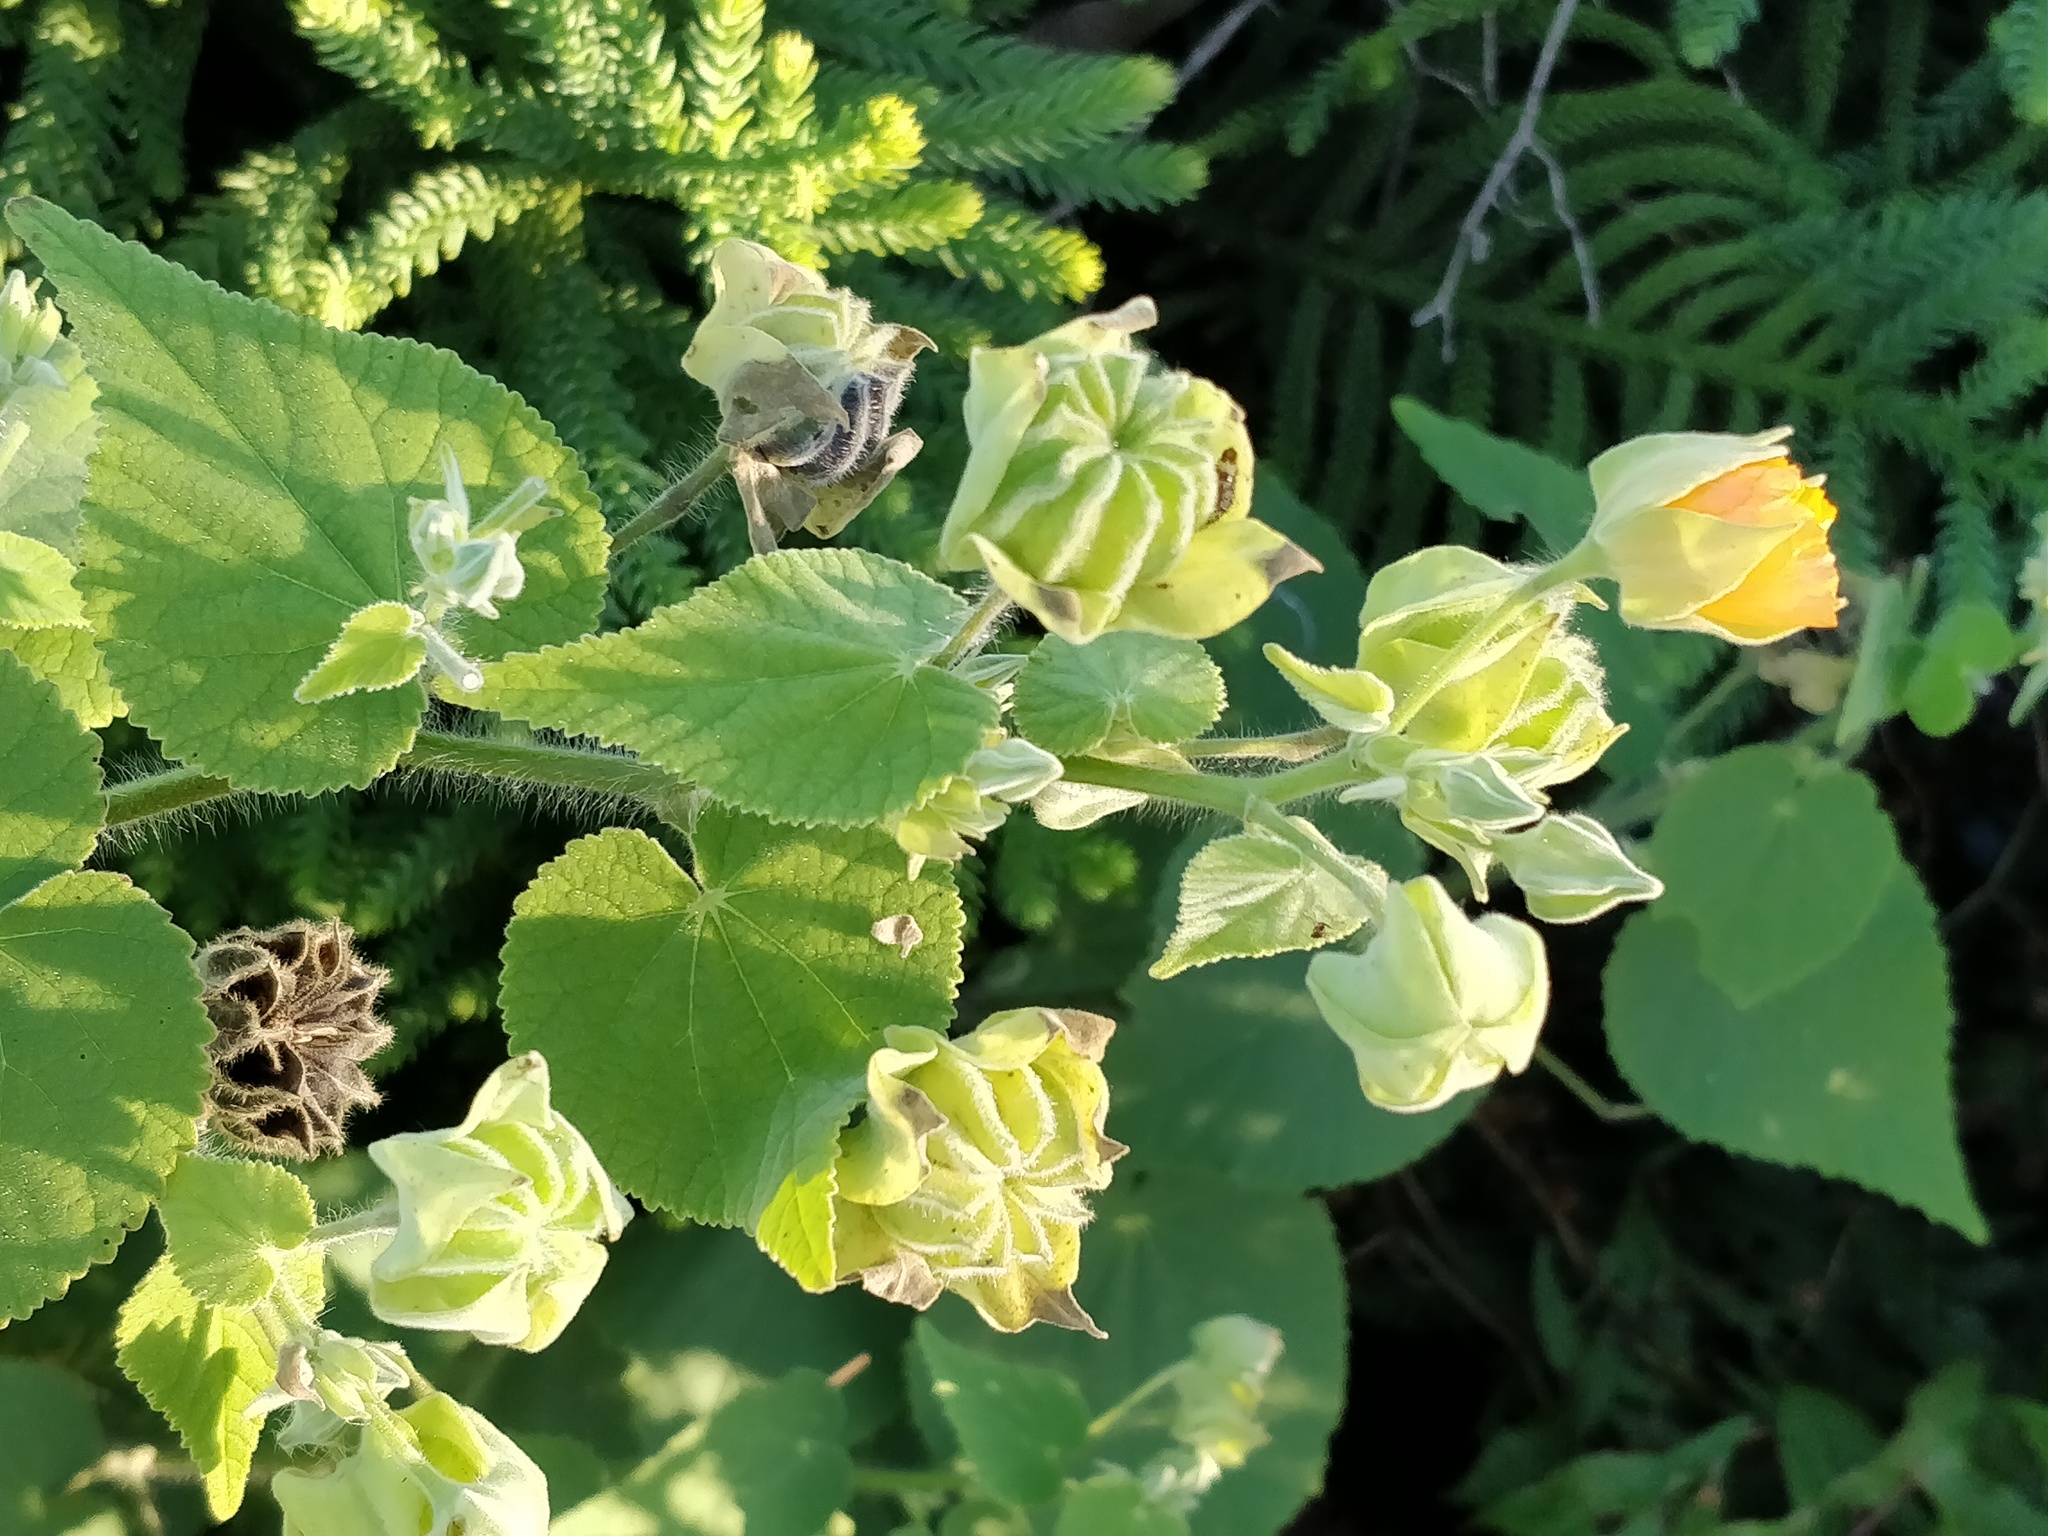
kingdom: Plantae
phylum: Tracheophyta
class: Magnoliopsida
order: Malvales
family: Malvaceae
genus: Abutilon
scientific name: Abutilon grandifolium
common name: Hairy abutilon
